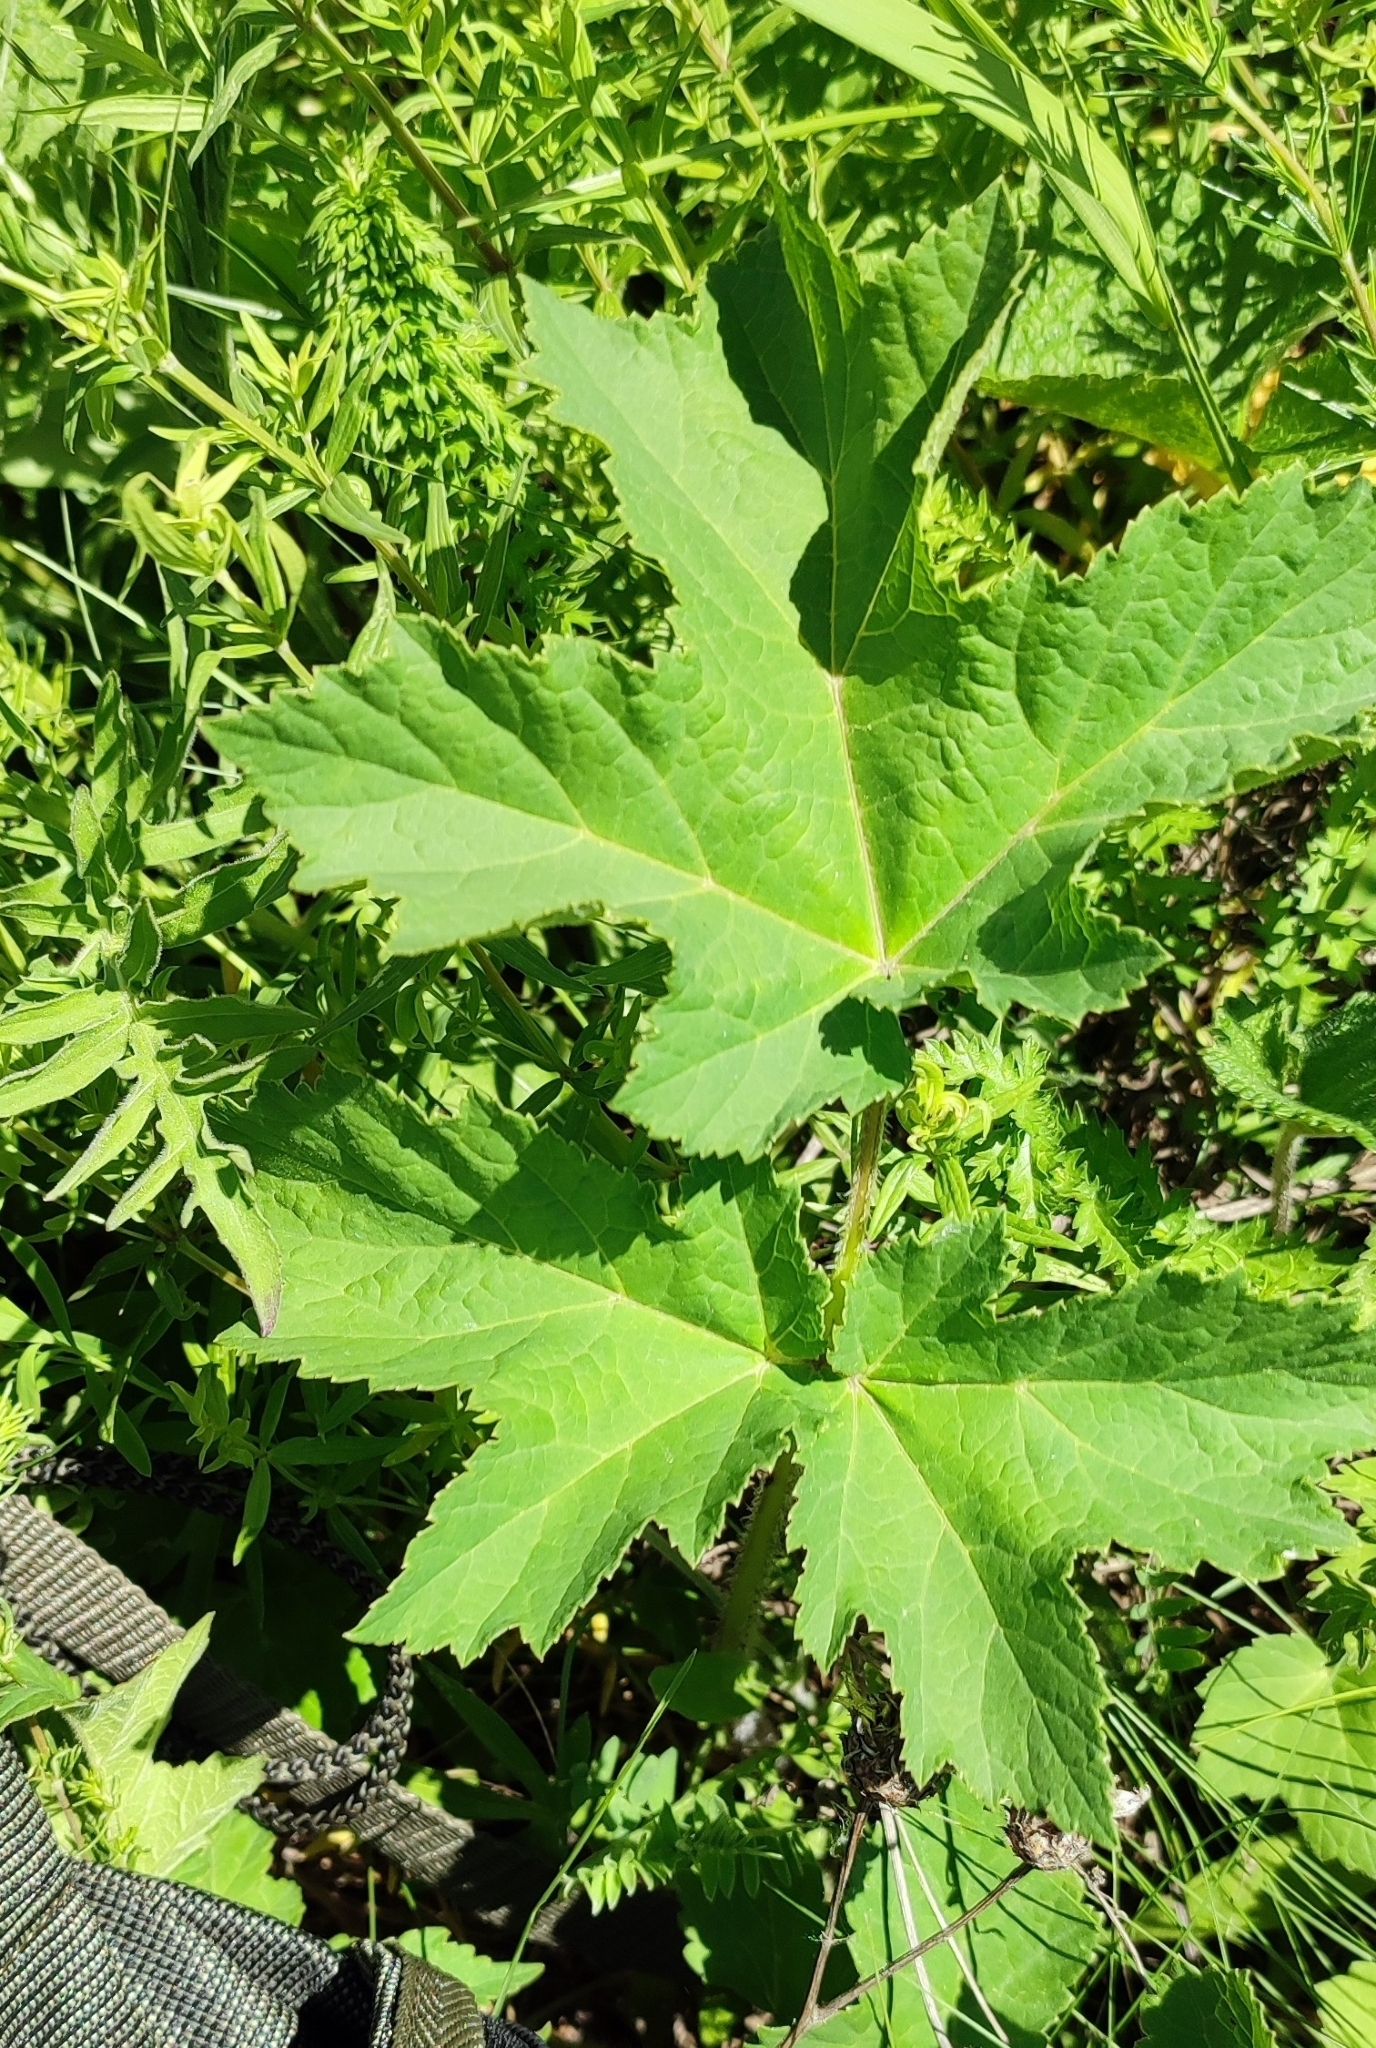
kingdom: Plantae
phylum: Tracheophyta
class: Magnoliopsida
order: Apiales
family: Apiaceae
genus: Heracleum
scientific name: Heracleum sphondylium
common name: Hogweed
